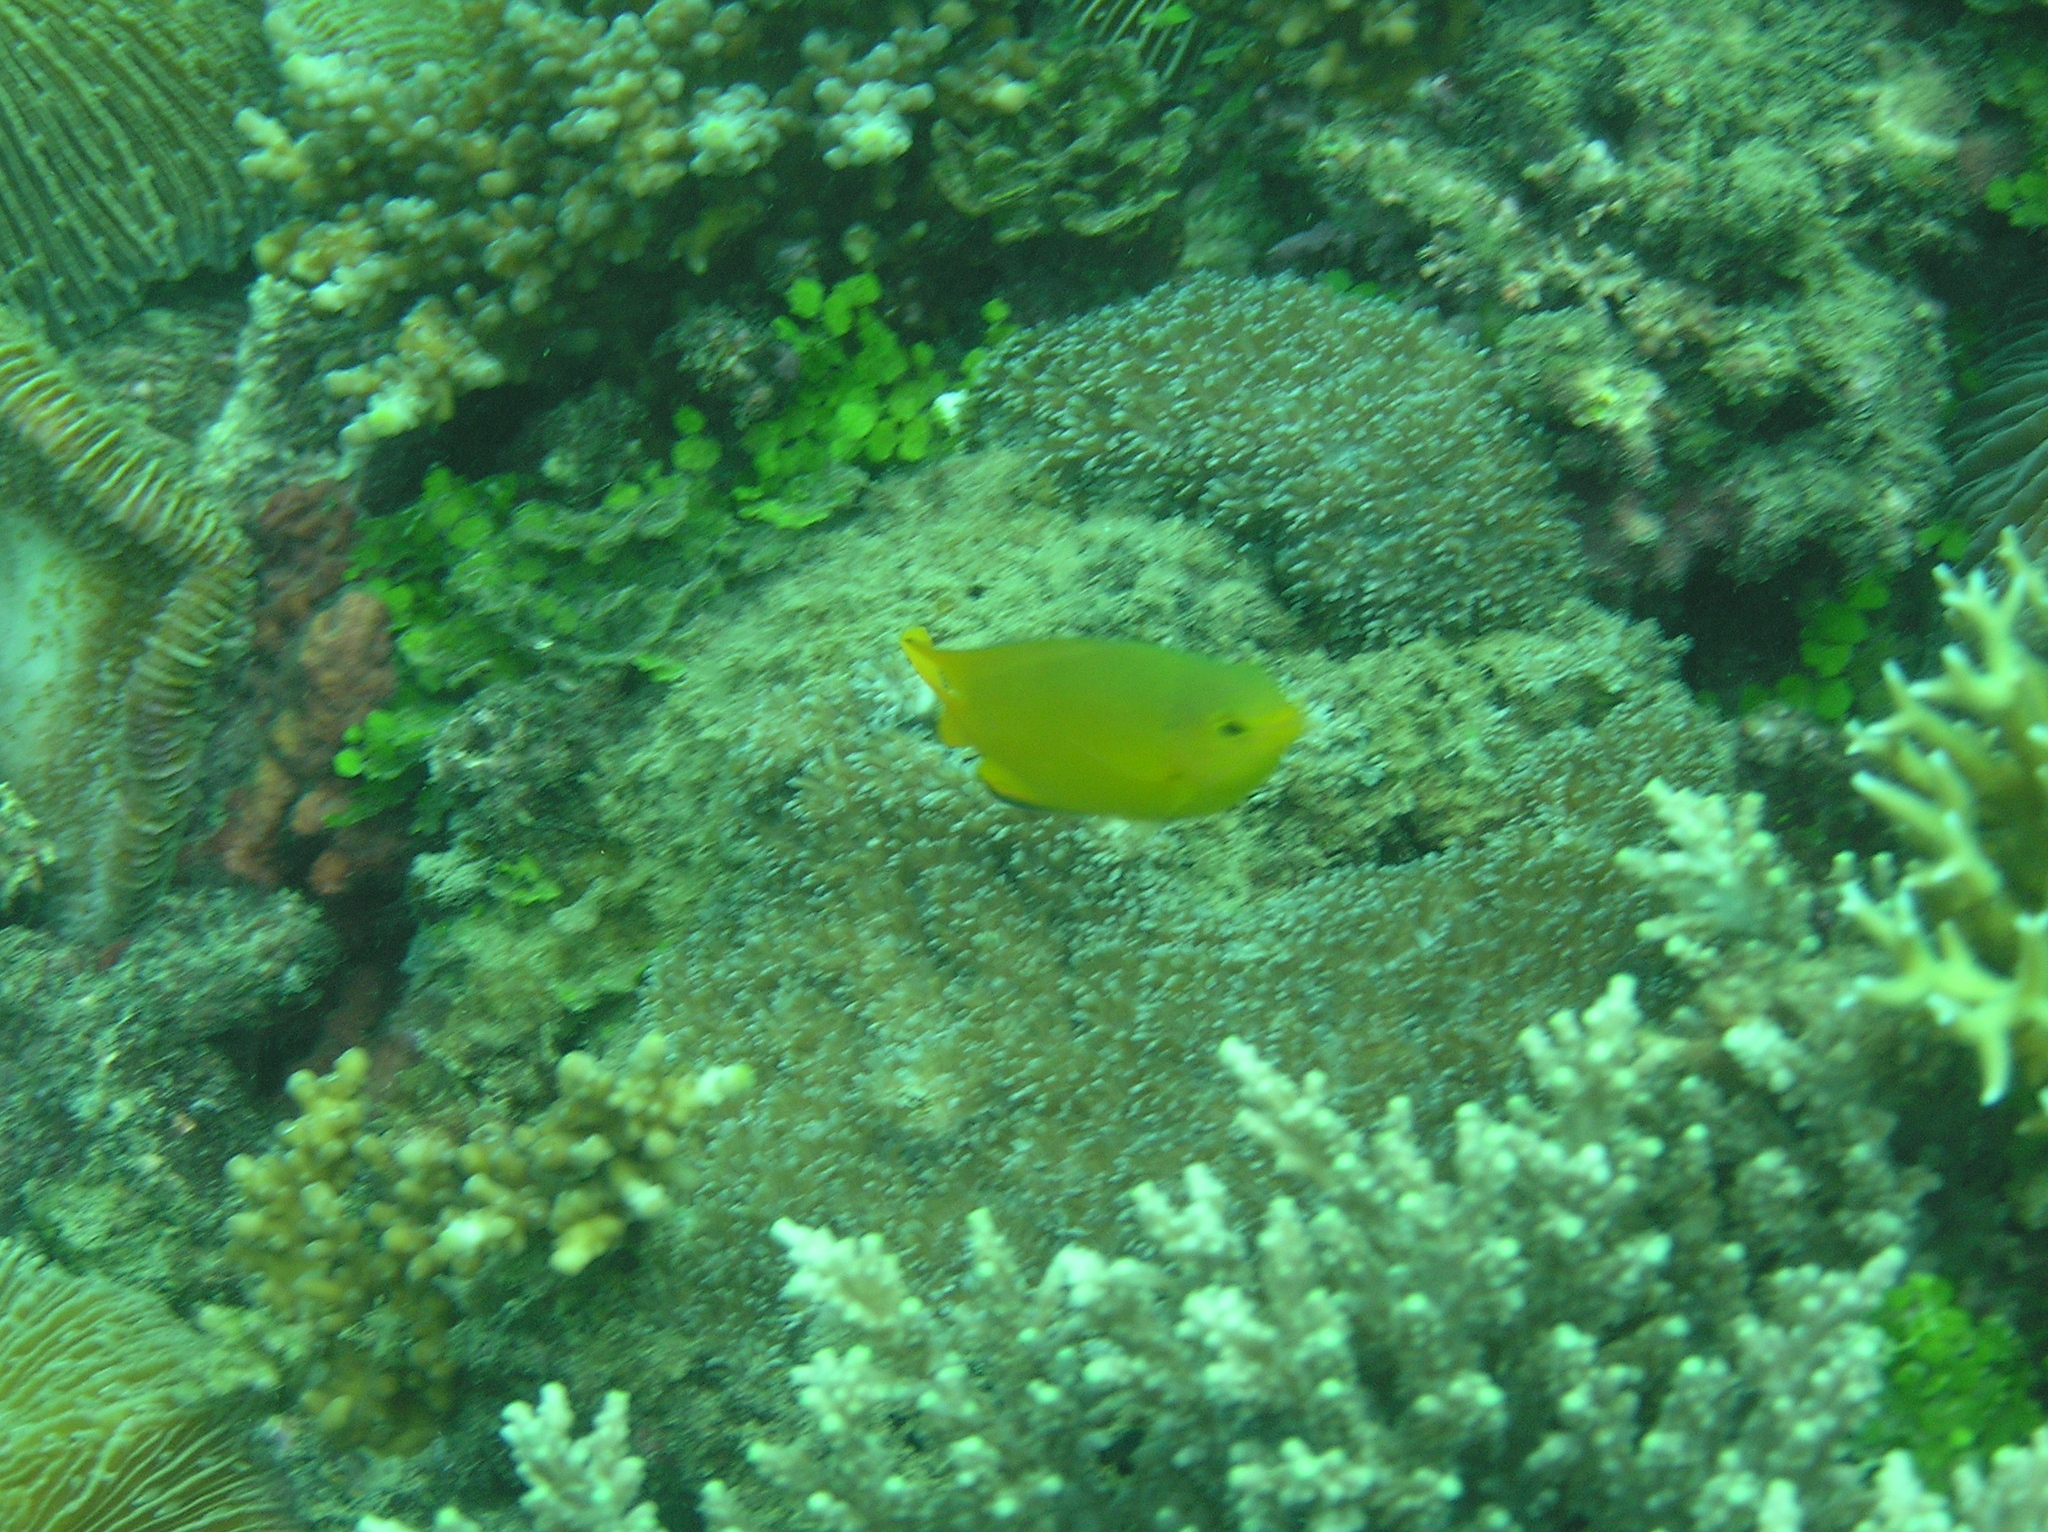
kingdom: Animalia
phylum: Chordata
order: Perciformes
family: Pomacentridae
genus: Pomacentrus
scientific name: Pomacentrus moluccensis
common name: Lemon damsel
